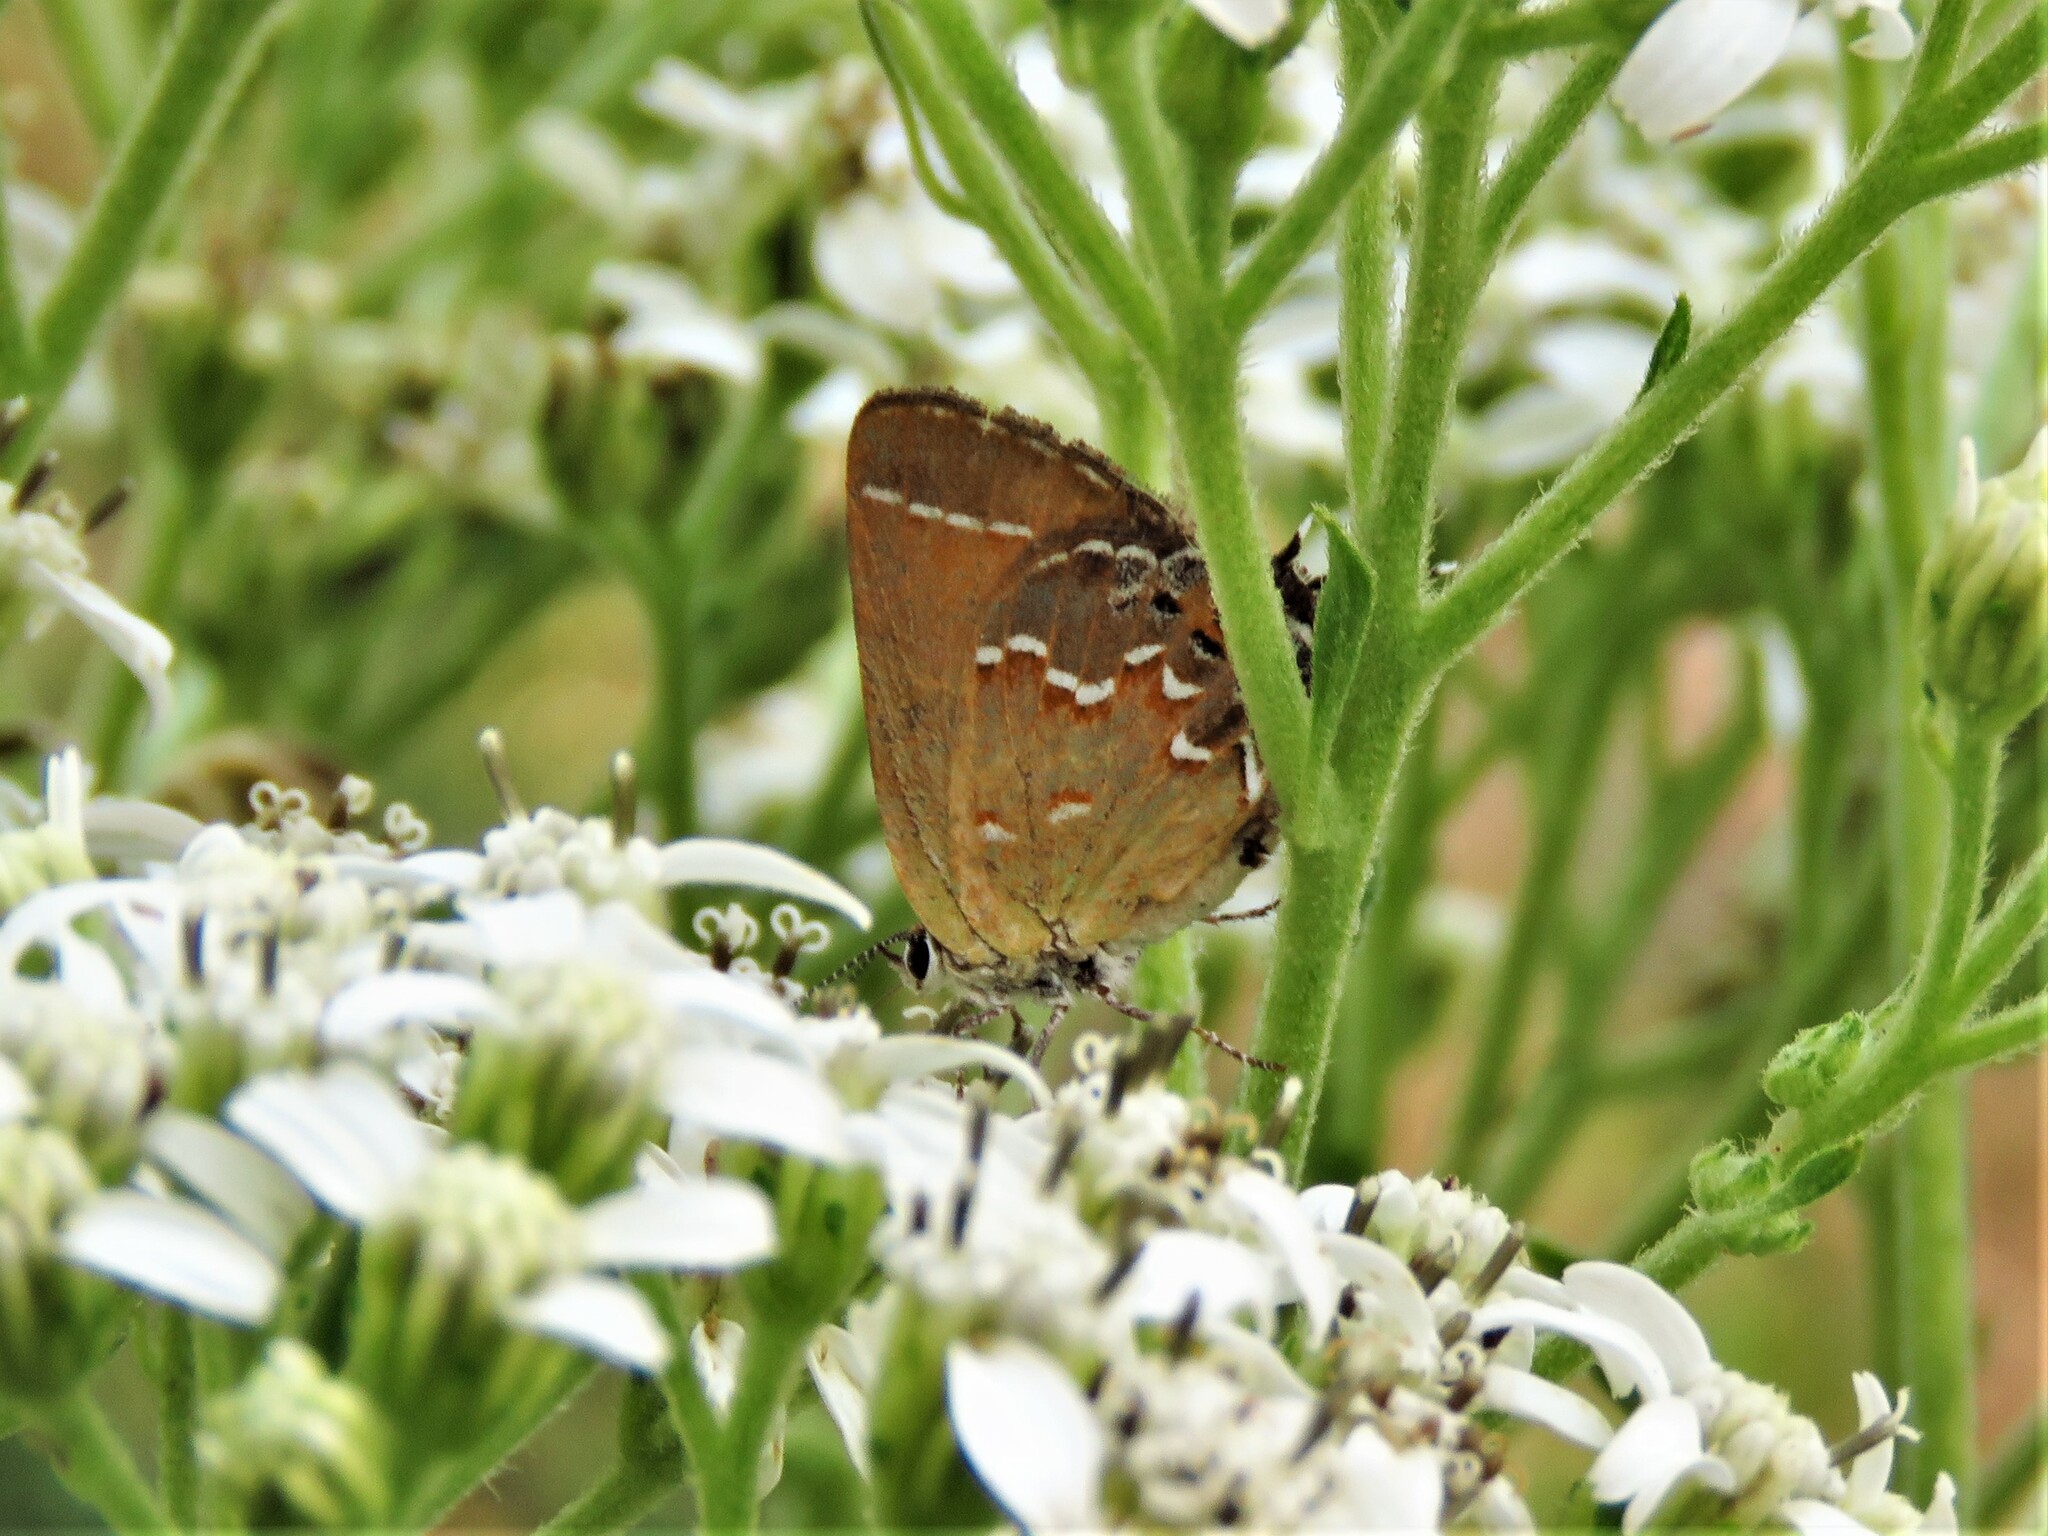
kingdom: Animalia
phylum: Arthropoda
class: Insecta
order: Lepidoptera
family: Lycaenidae
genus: Mitoura
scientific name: Mitoura gryneus
